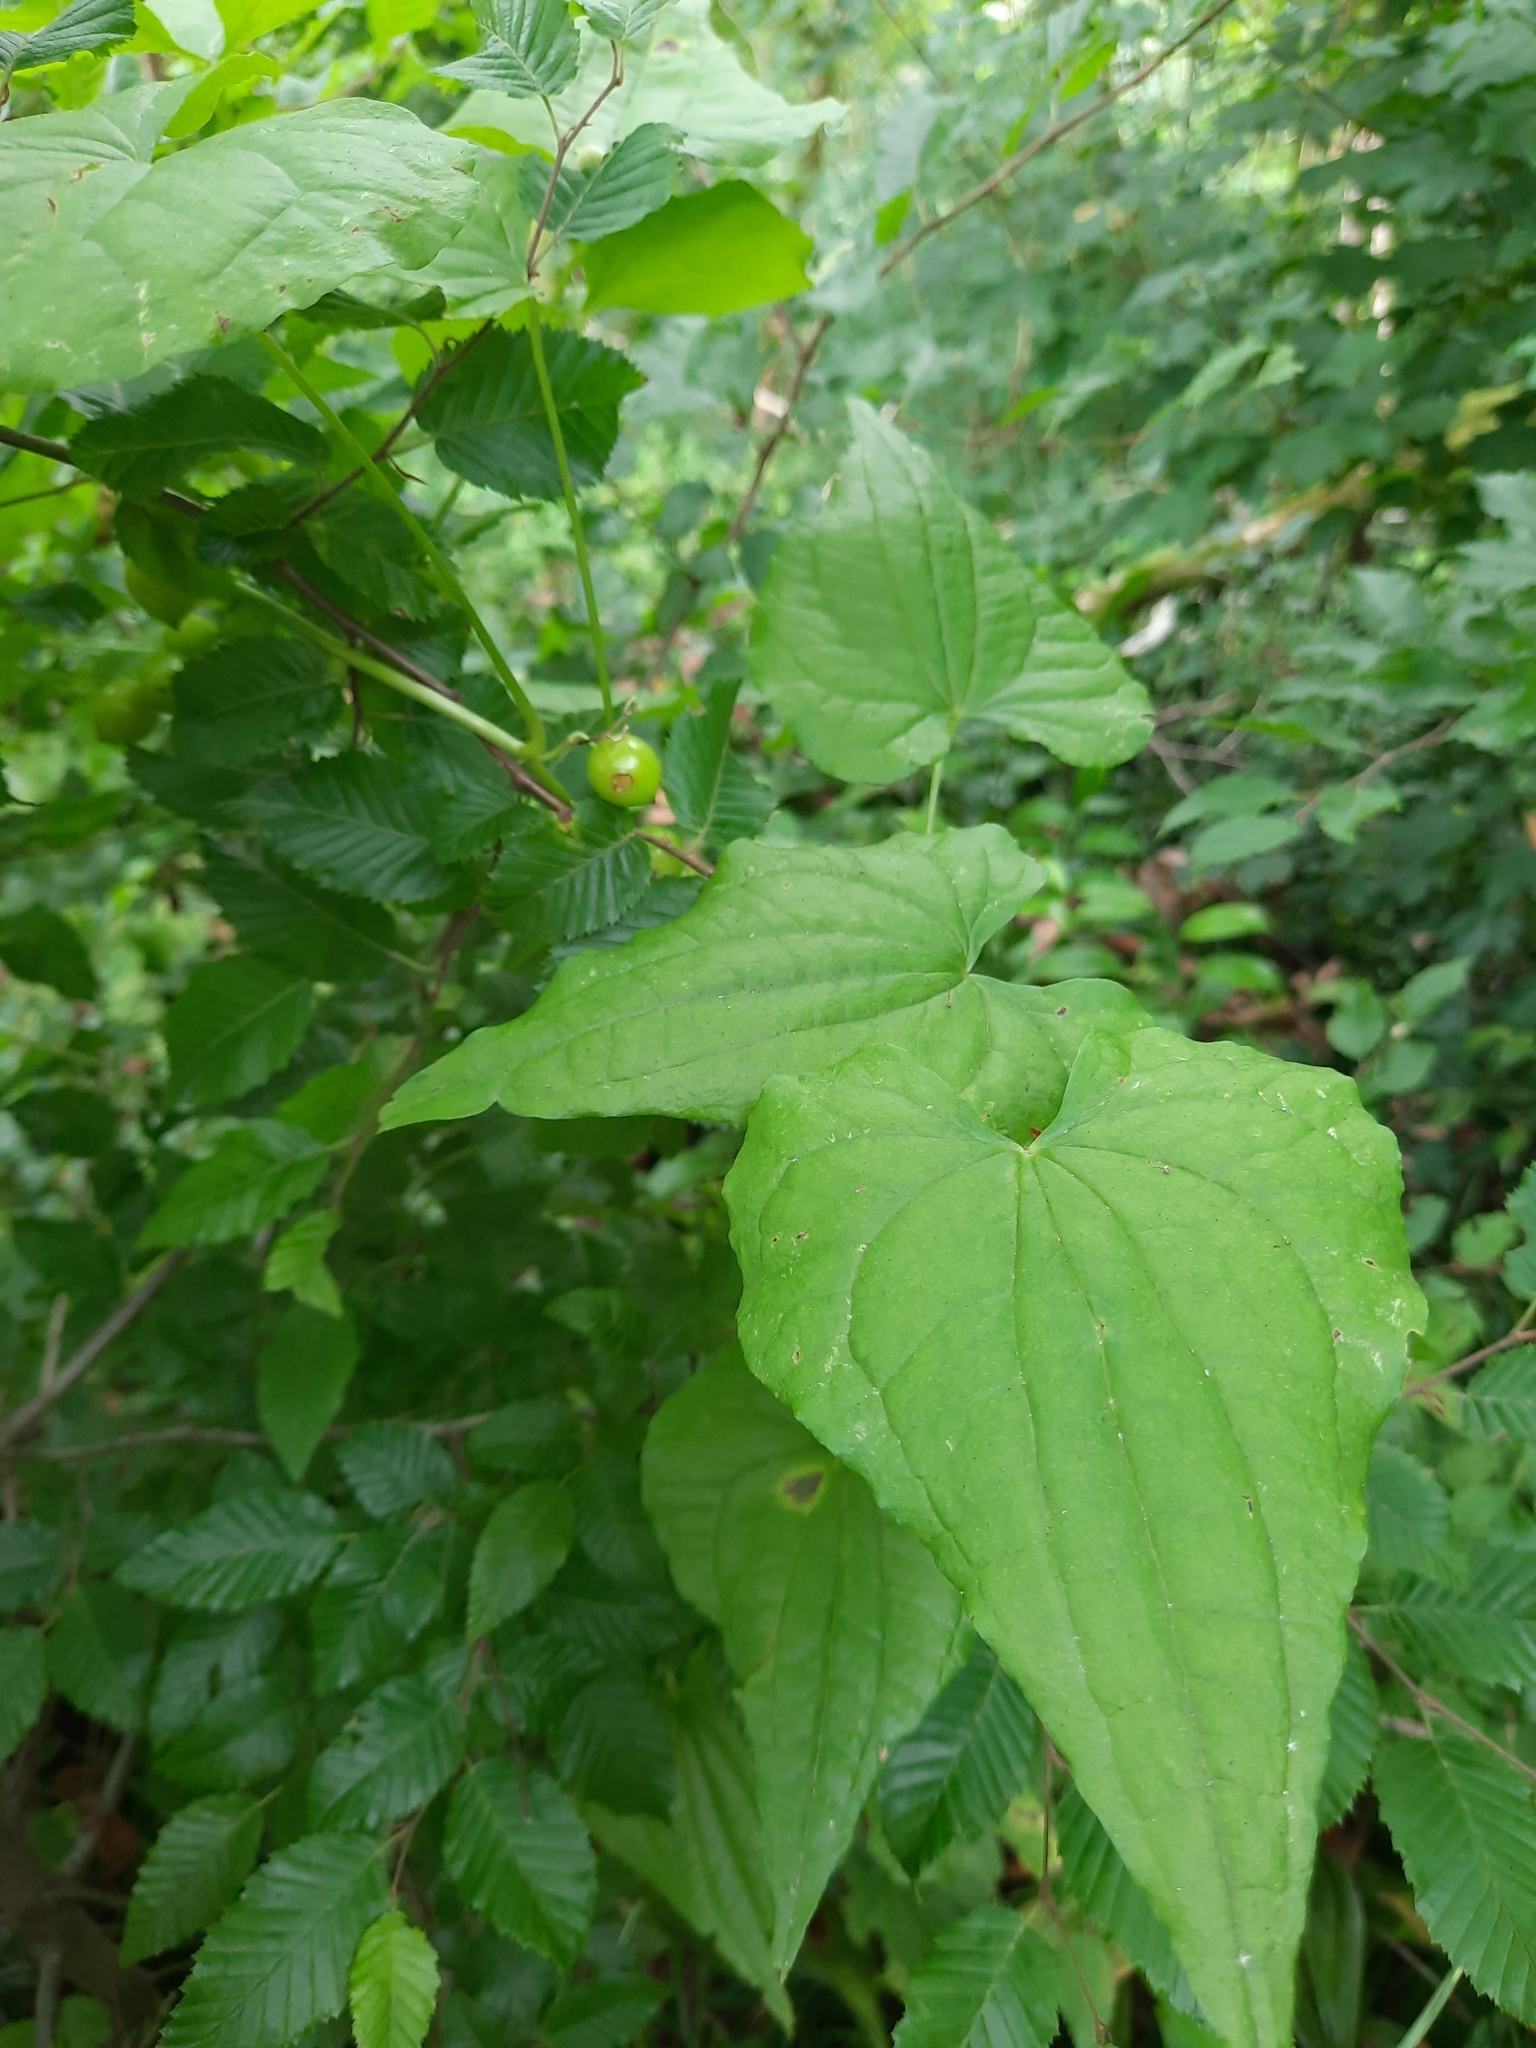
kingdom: Plantae
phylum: Tracheophyta
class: Liliopsida
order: Dioscoreales
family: Dioscoreaceae
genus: Dioscorea
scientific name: Dioscorea communis
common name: Black-bindweed
